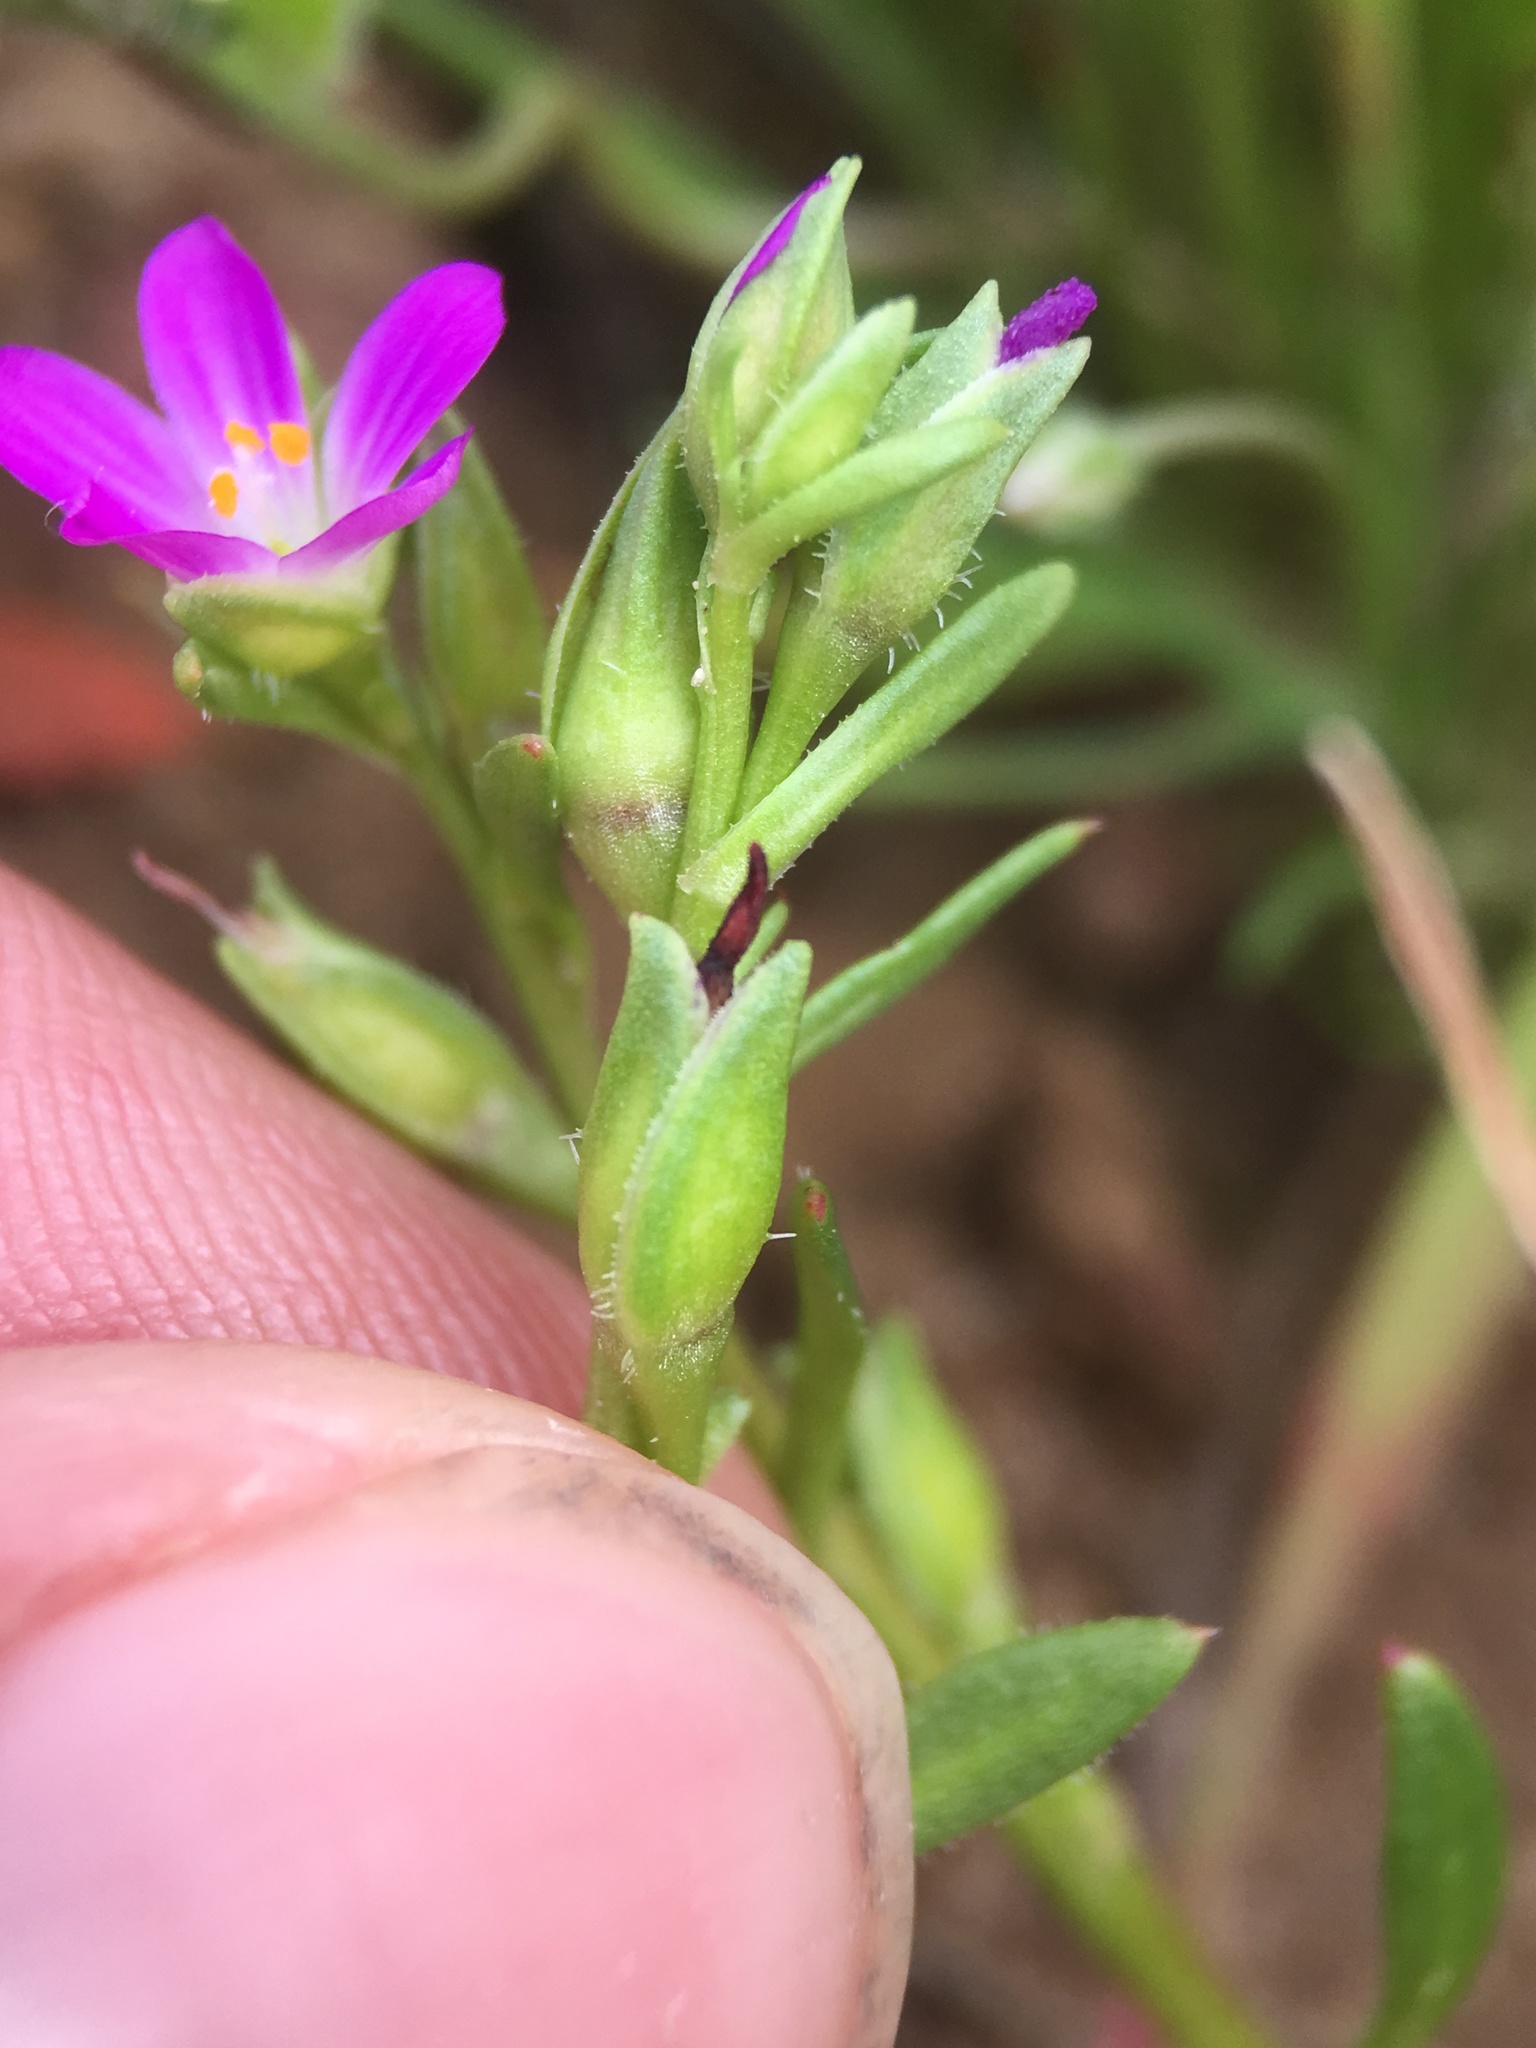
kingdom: Plantae
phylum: Tracheophyta
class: Magnoliopsida
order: Caryophyllales
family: Montiaceae
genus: Calandrinia
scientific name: Calandrinia menziesii
